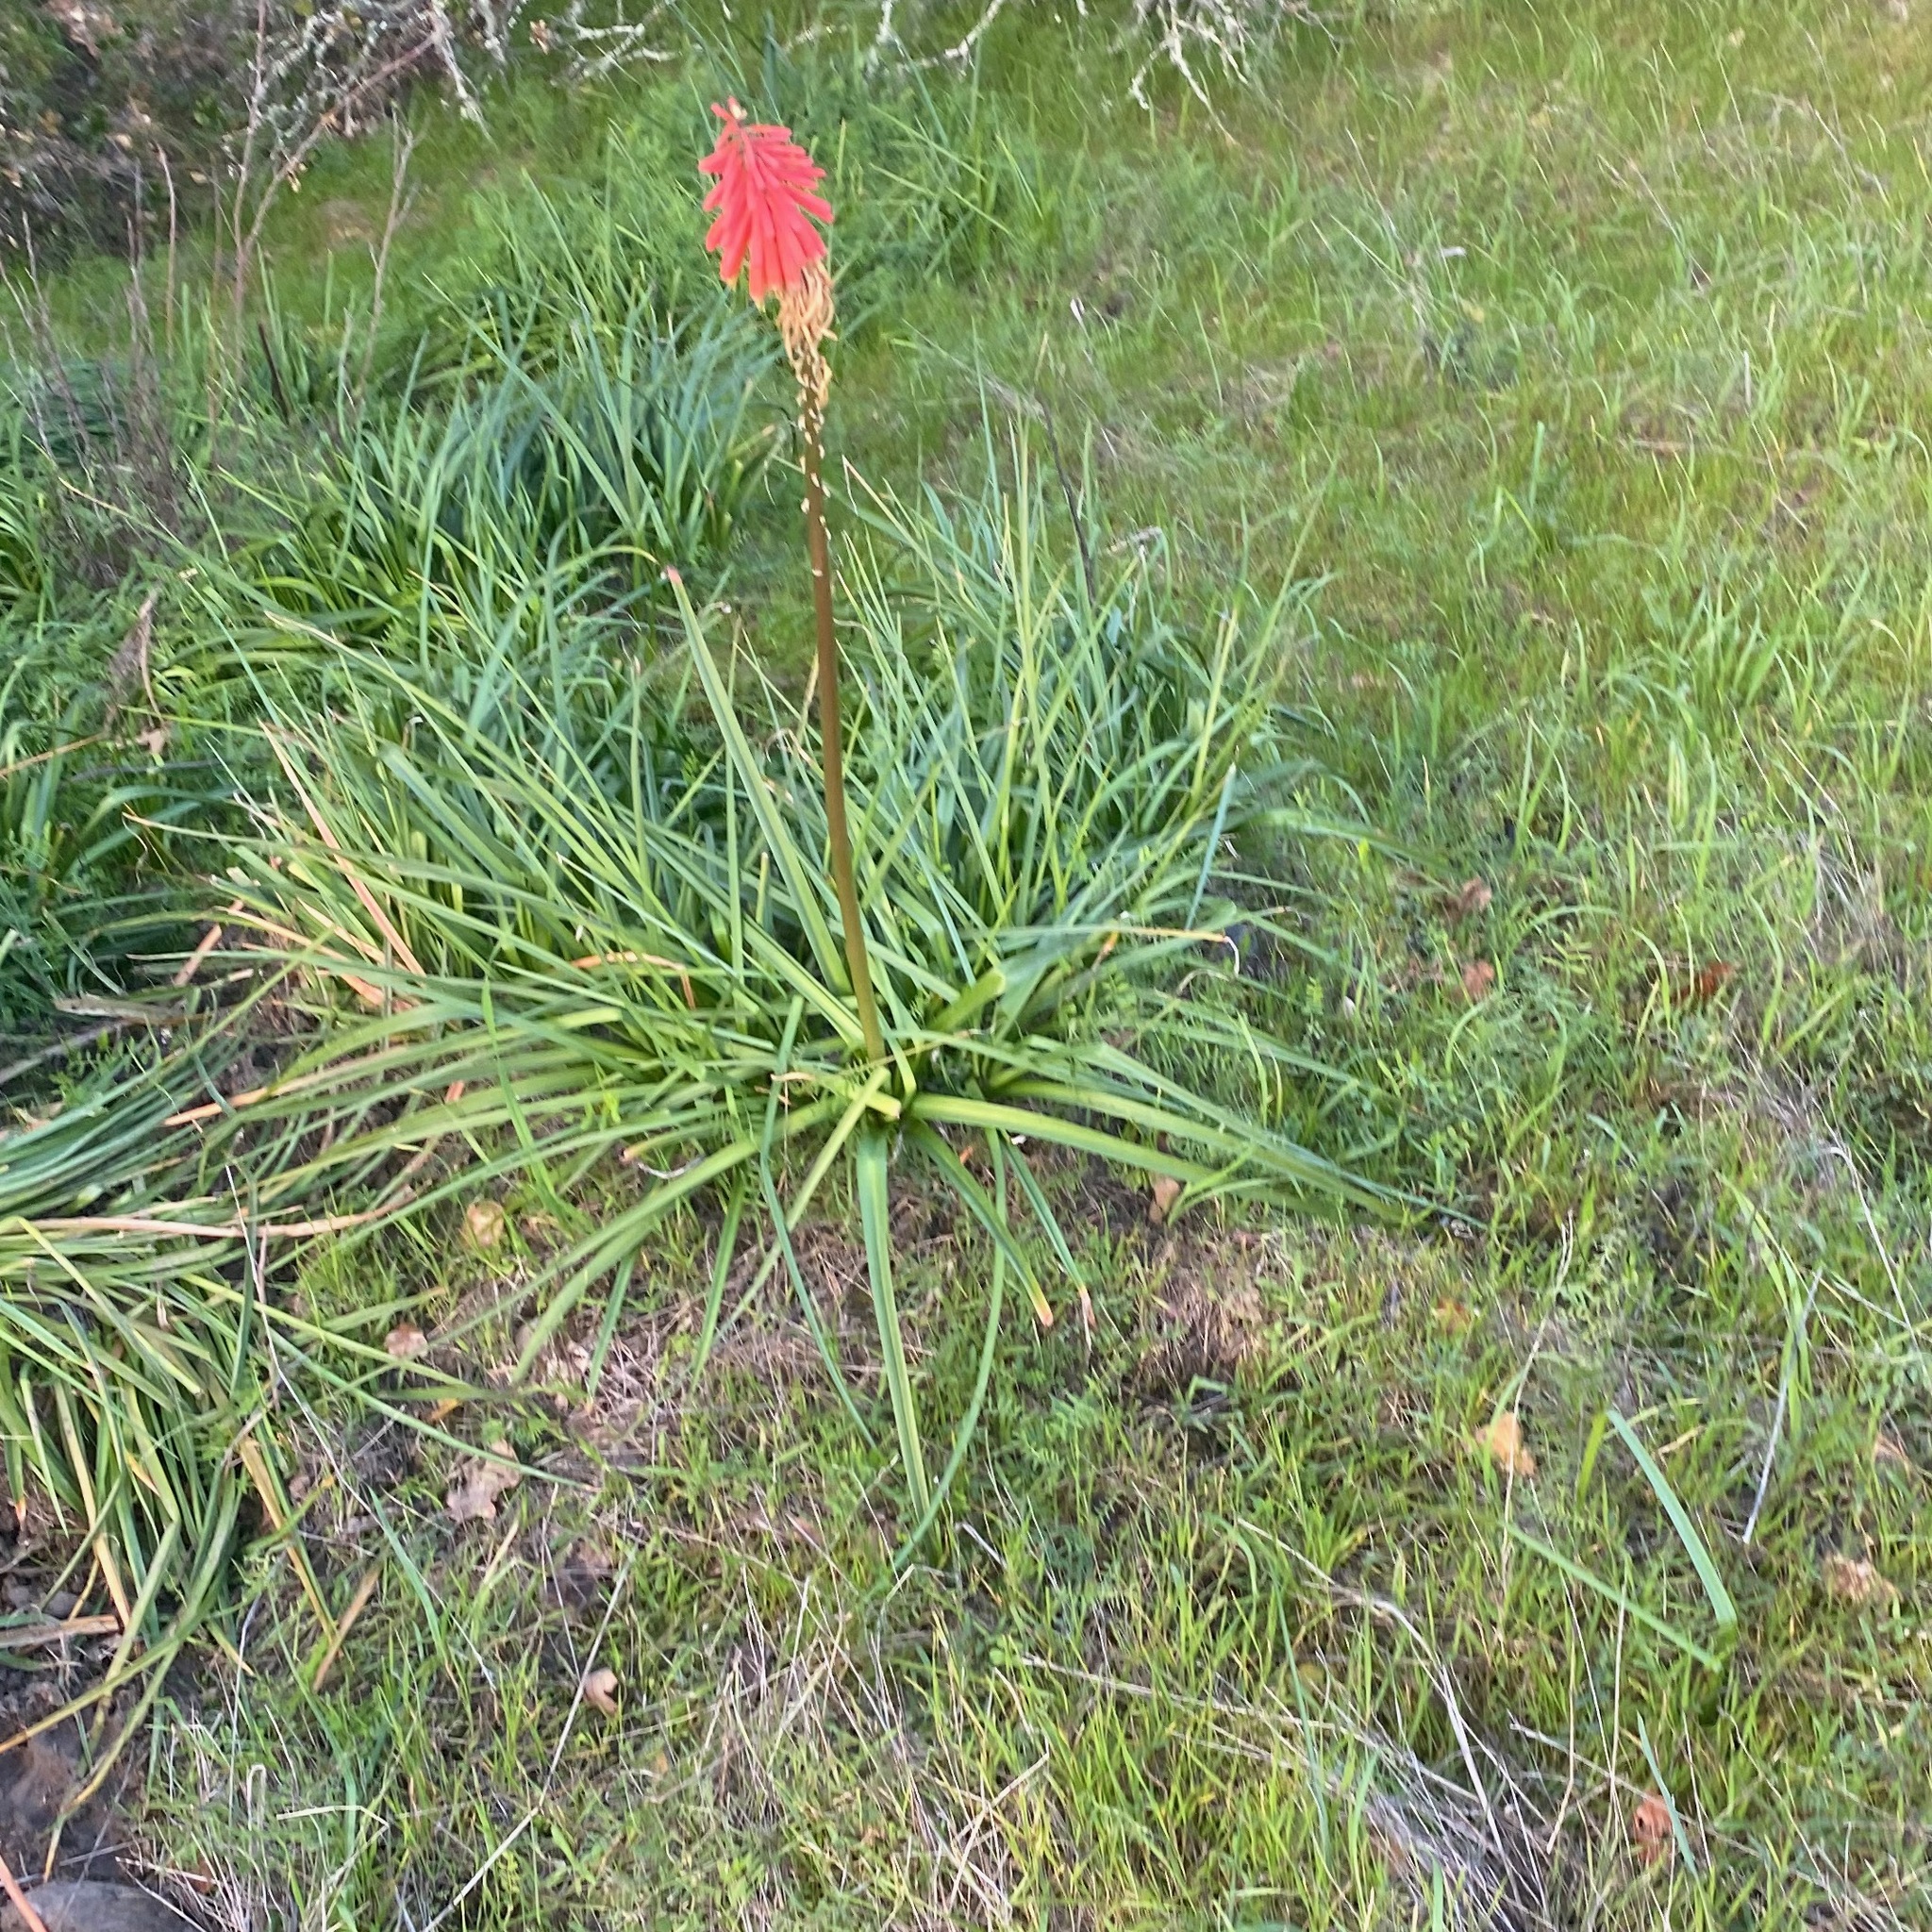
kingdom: Plantae
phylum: Tracheophyta
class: Liliopsida
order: Asparagales
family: Asphodelaceae
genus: Kniphofia
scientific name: Kniphofia uvaria
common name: Red-hot-poker
